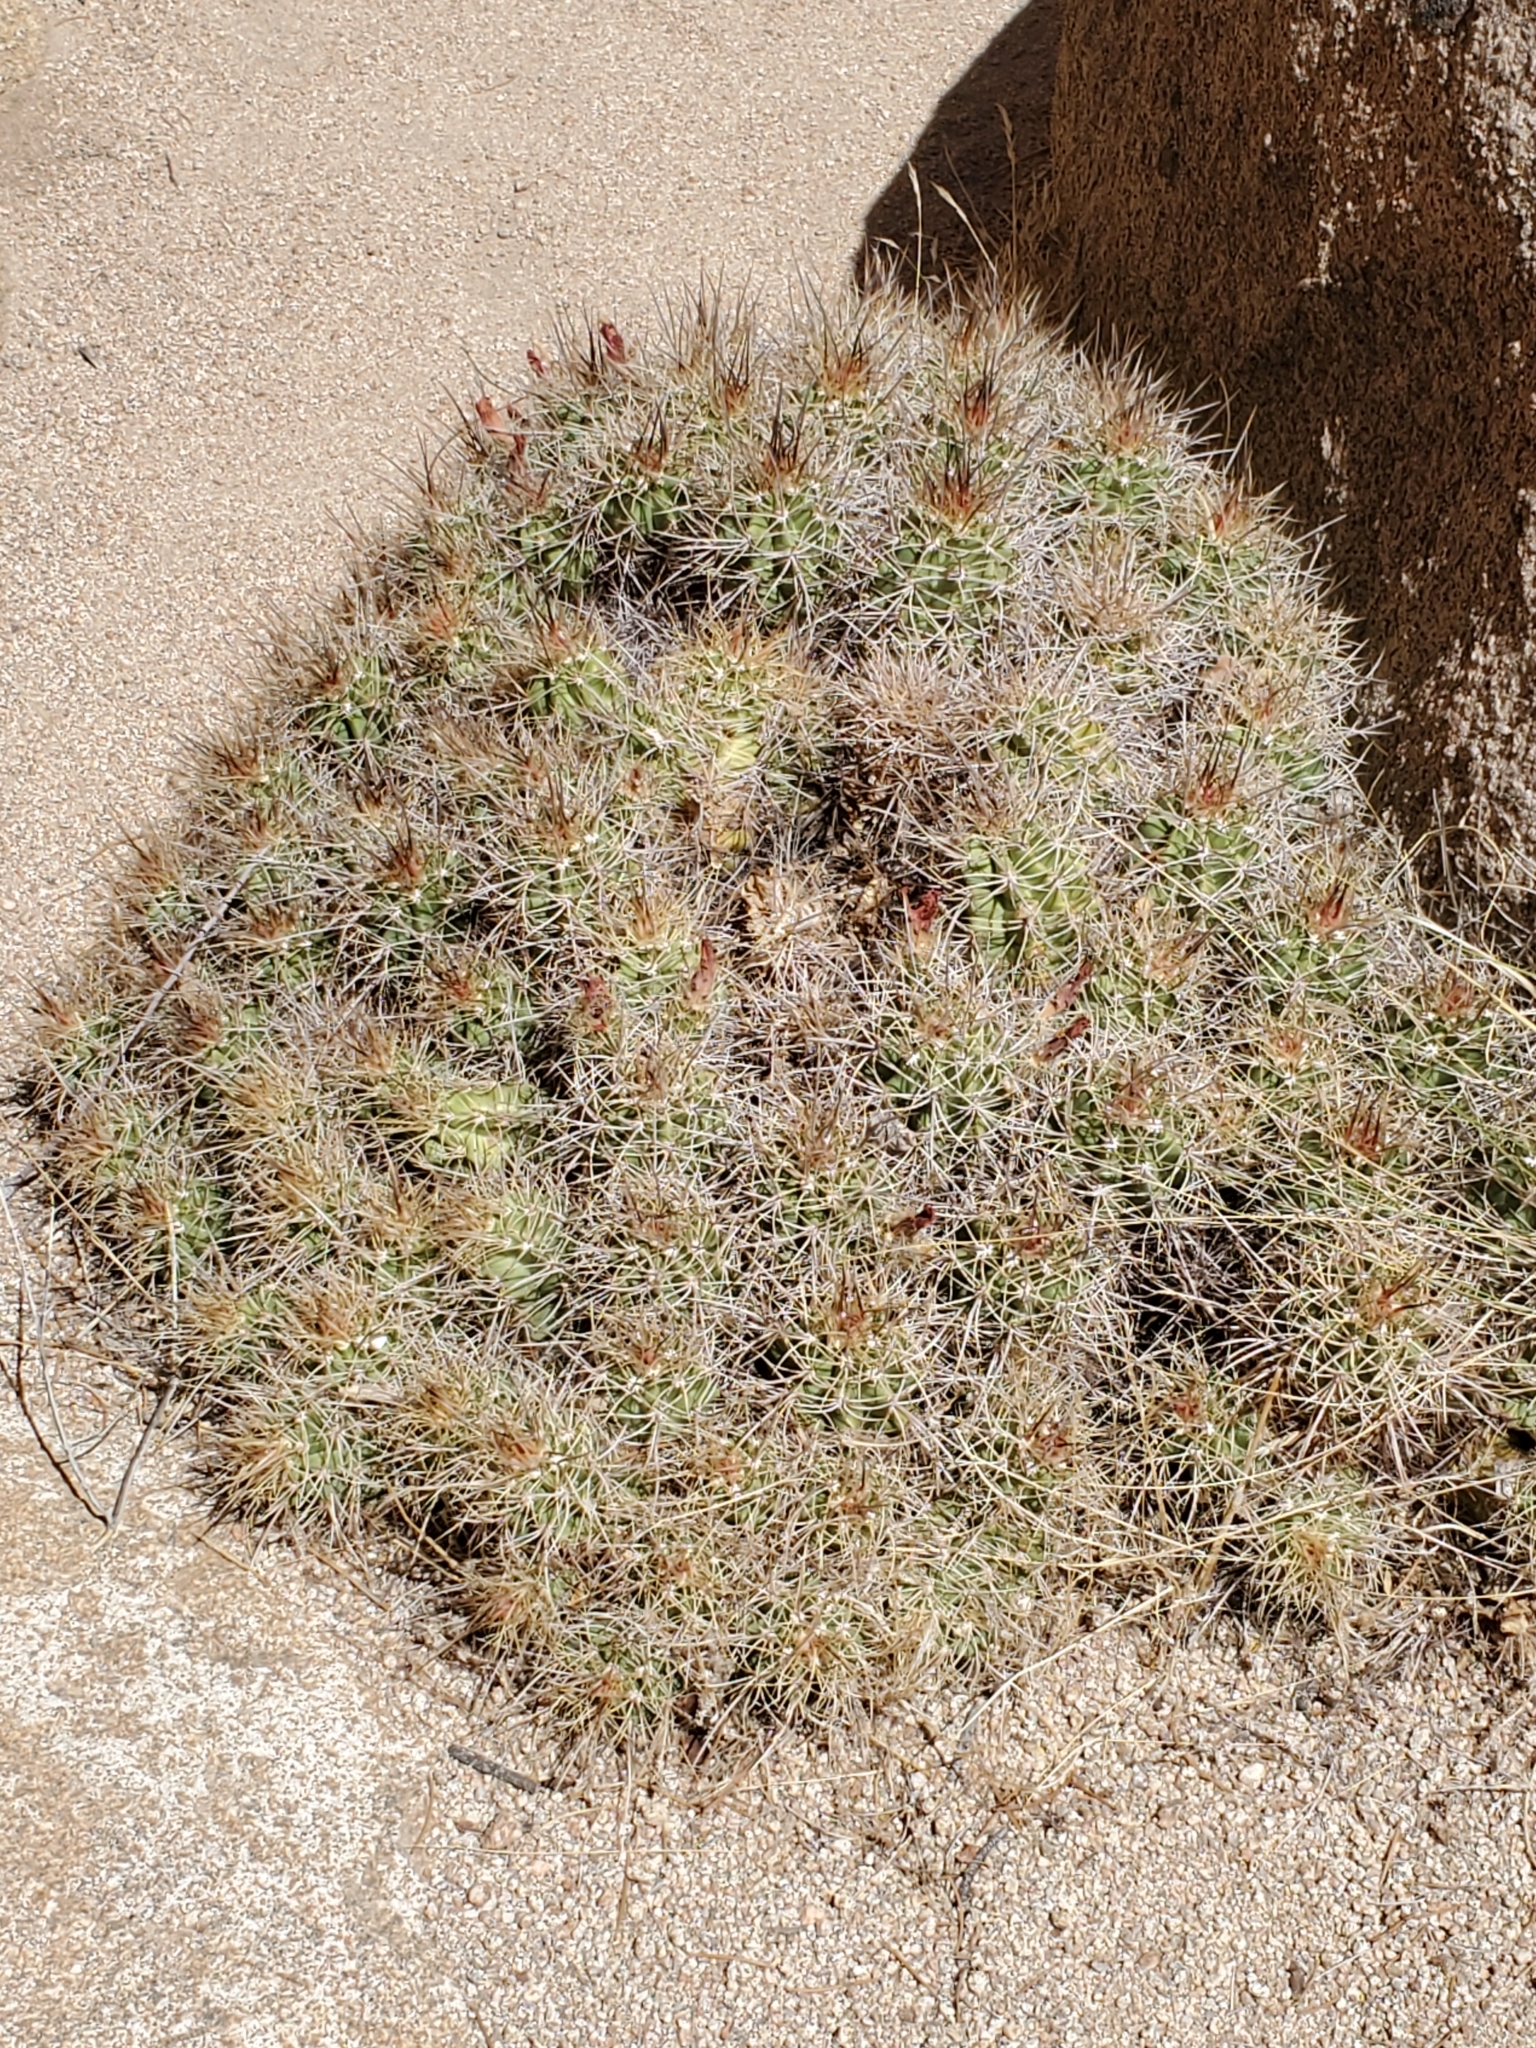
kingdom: Plantae
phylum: Tracheophyta
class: Magnoliopsida
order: Caryophyllales
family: Cactaceae
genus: Echinocereus
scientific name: Echinocereus triglochidiatus
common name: Claretcup hedgehog
